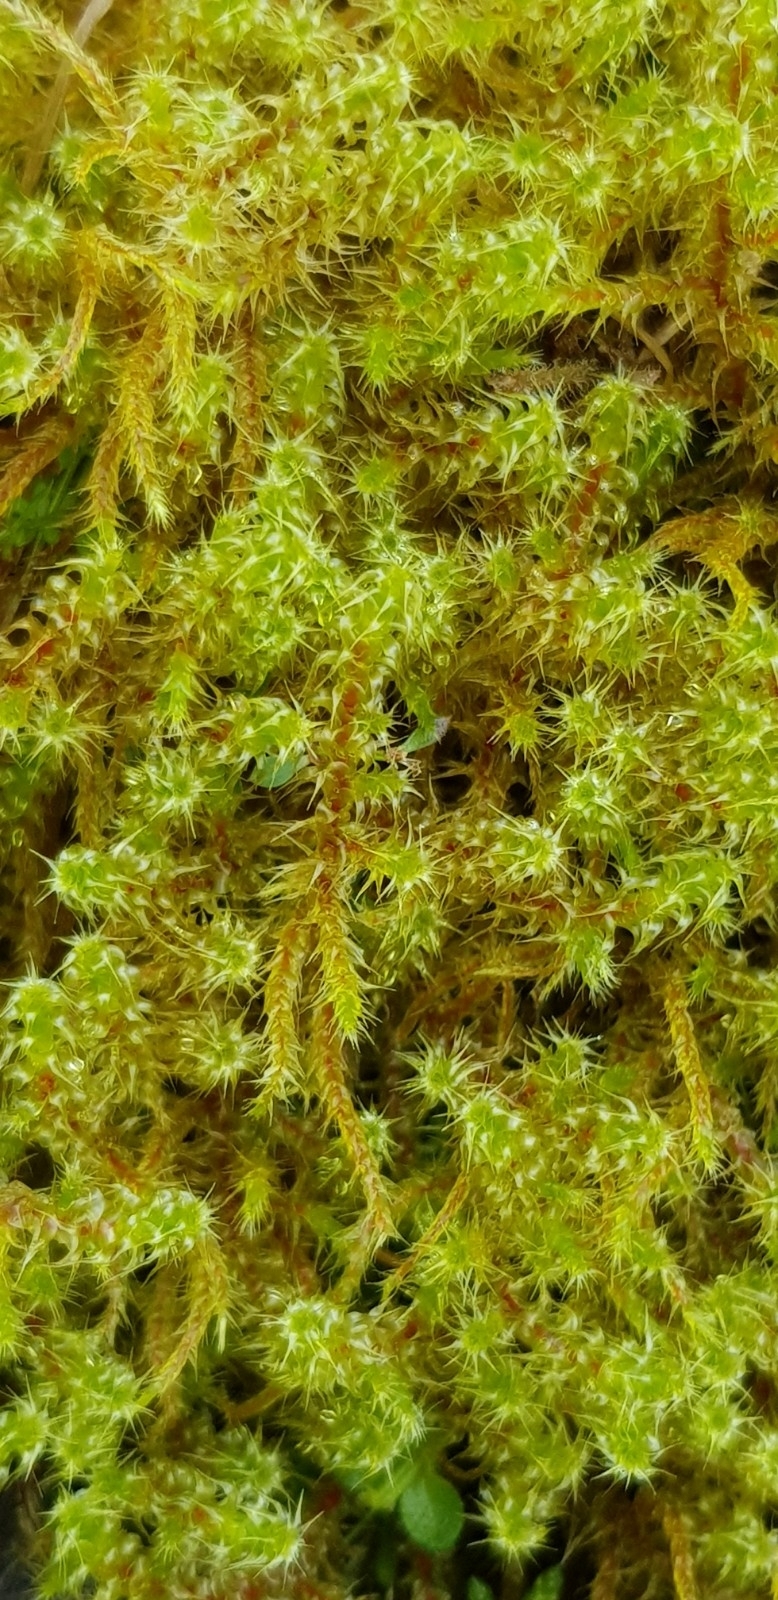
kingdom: Plantae
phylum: Bryophyta
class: Bryopsida
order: Hypnales
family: Hylocomiaceae
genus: Rhytidiadelphus
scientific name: Rhytidiadelphus squarrosus
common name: Springy turf-moss
